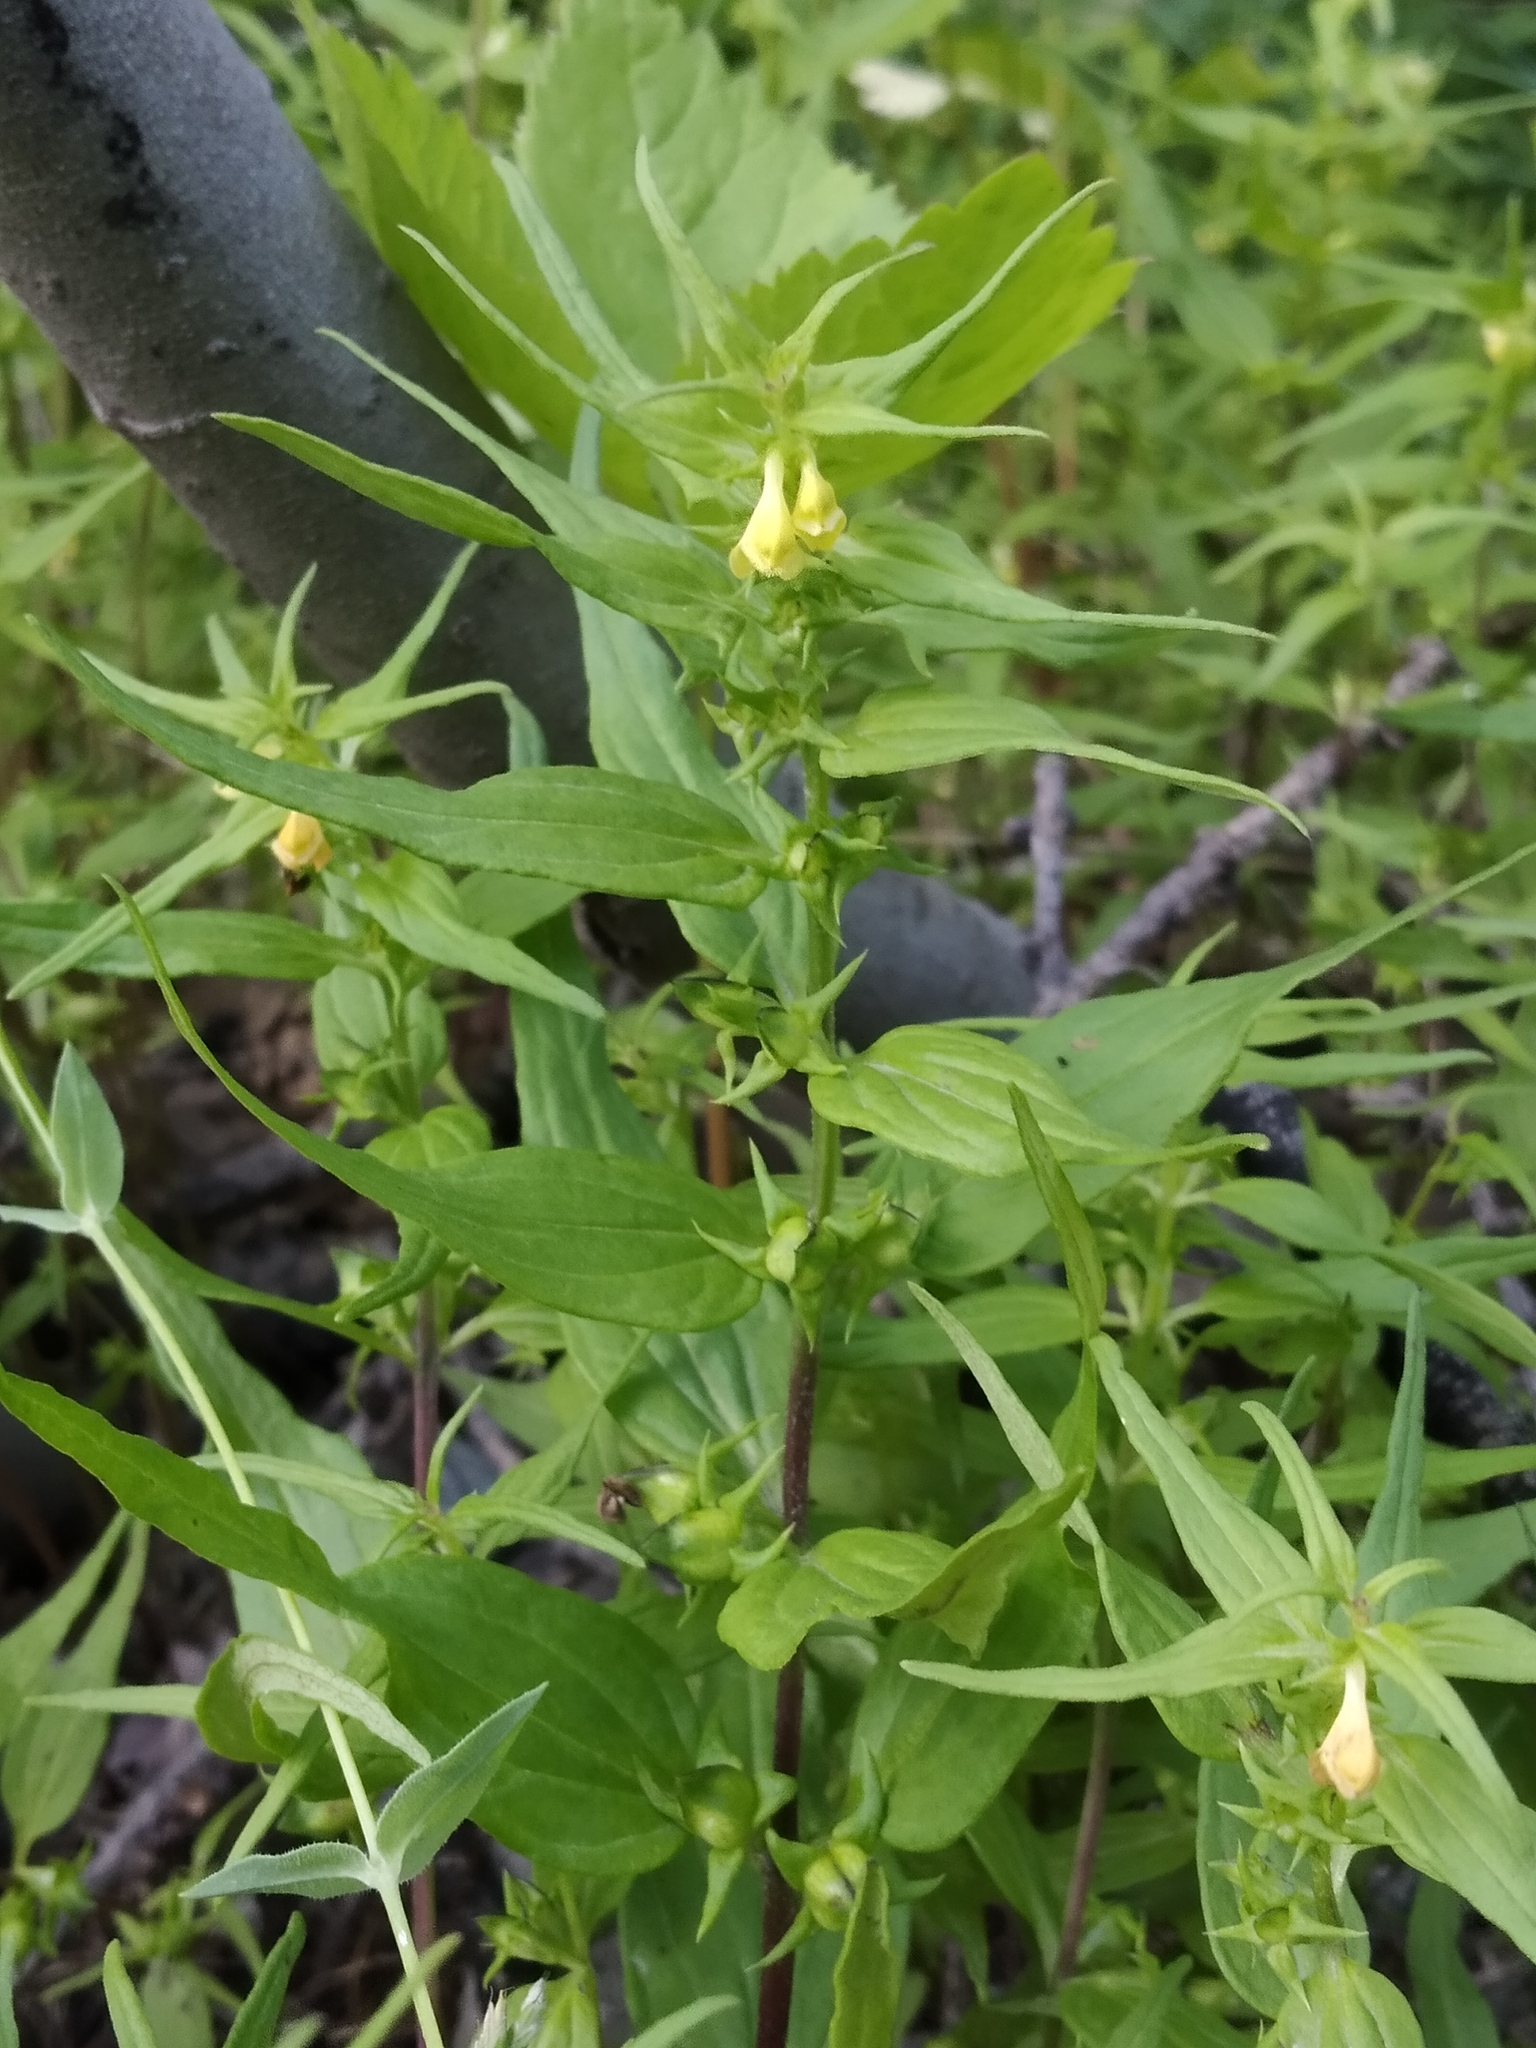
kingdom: Plantae
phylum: Tracheophyta
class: Magnoliopsida
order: Lamiales
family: Orobanchaceae
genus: Melampyrum
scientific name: Melampyrum sylvaticum
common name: Small cow-wheat
